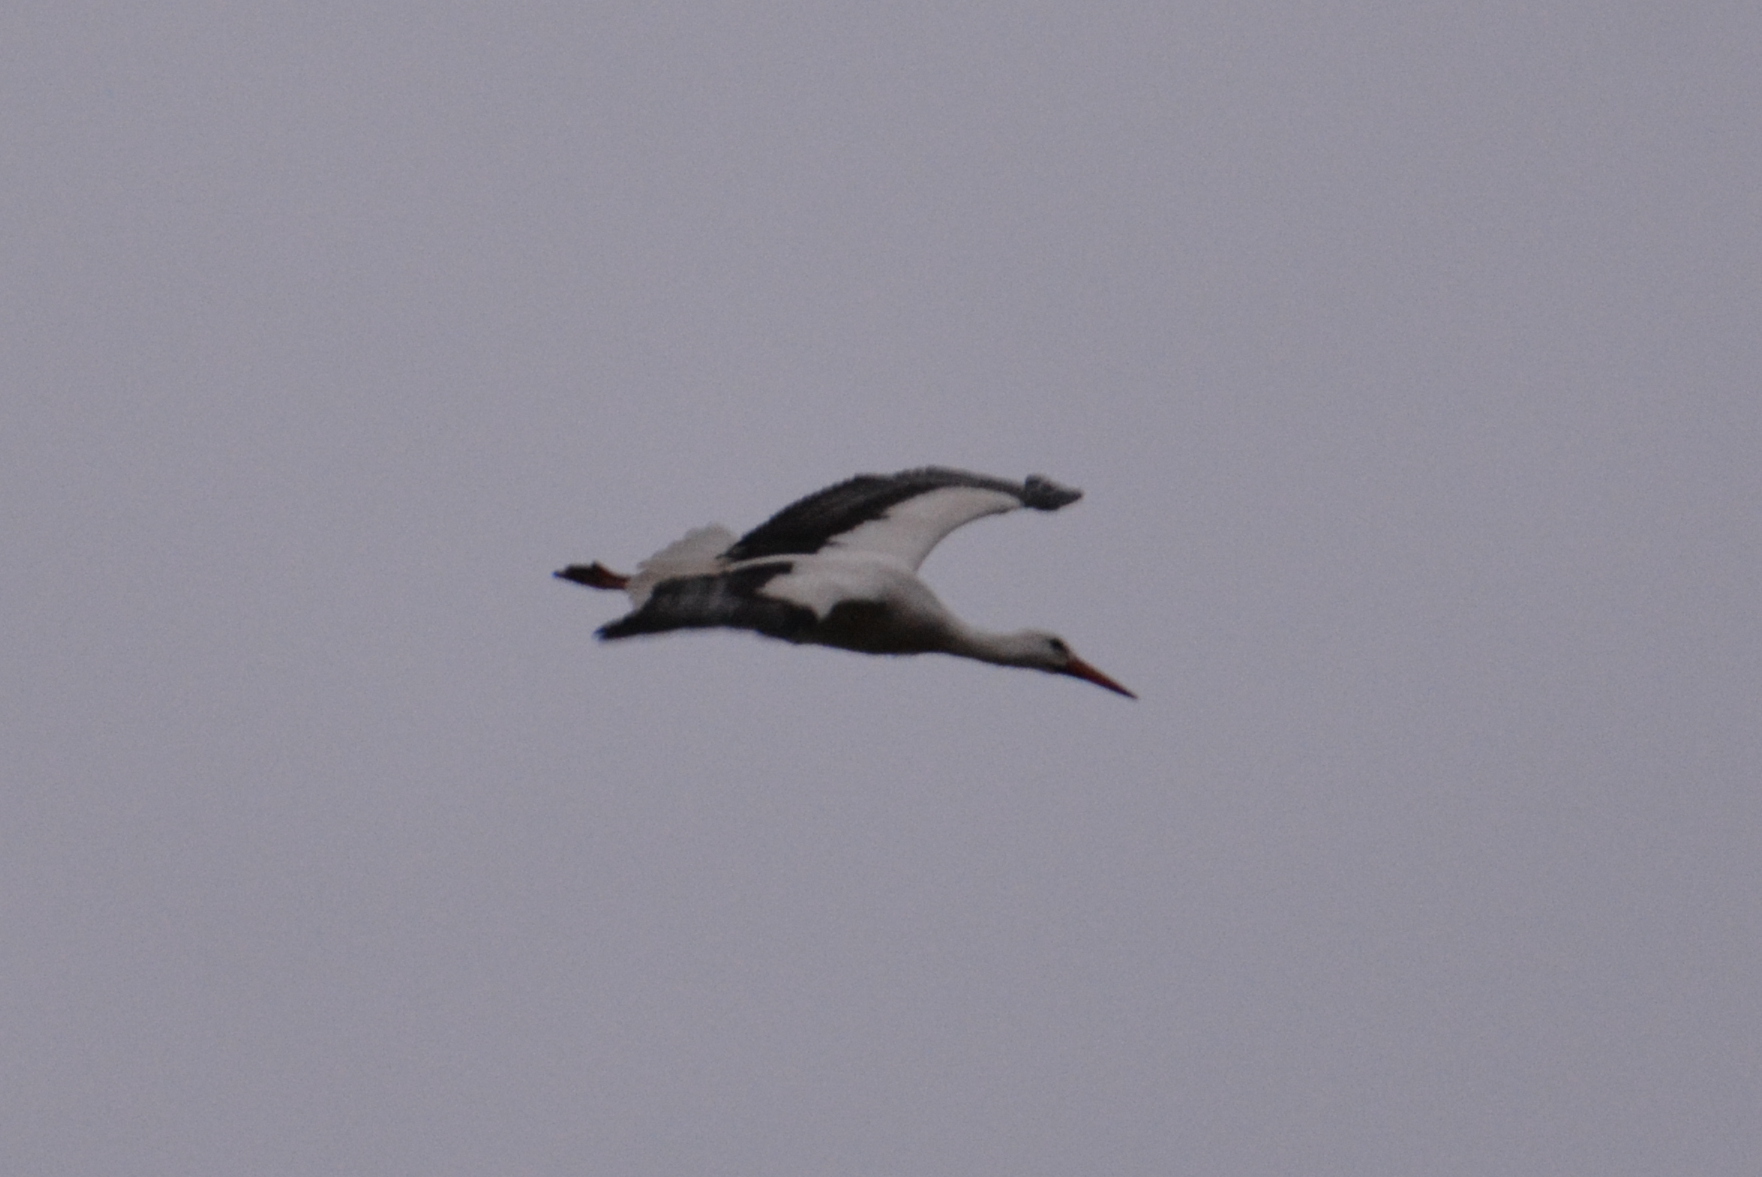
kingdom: Animalia
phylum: Chordata
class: Aves
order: Ciconiiformes
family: Ciconiidae
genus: Ciconia
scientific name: Ciconia ciconia
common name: White stork
